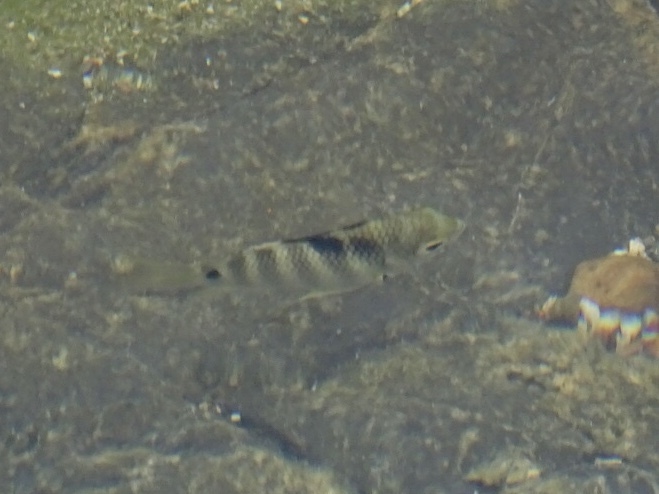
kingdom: Animalia
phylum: Chordata
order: Perciformes
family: Pomacentridae
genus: Abudefduf
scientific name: Abudefduf sordidus
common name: Blackspot sergeant
